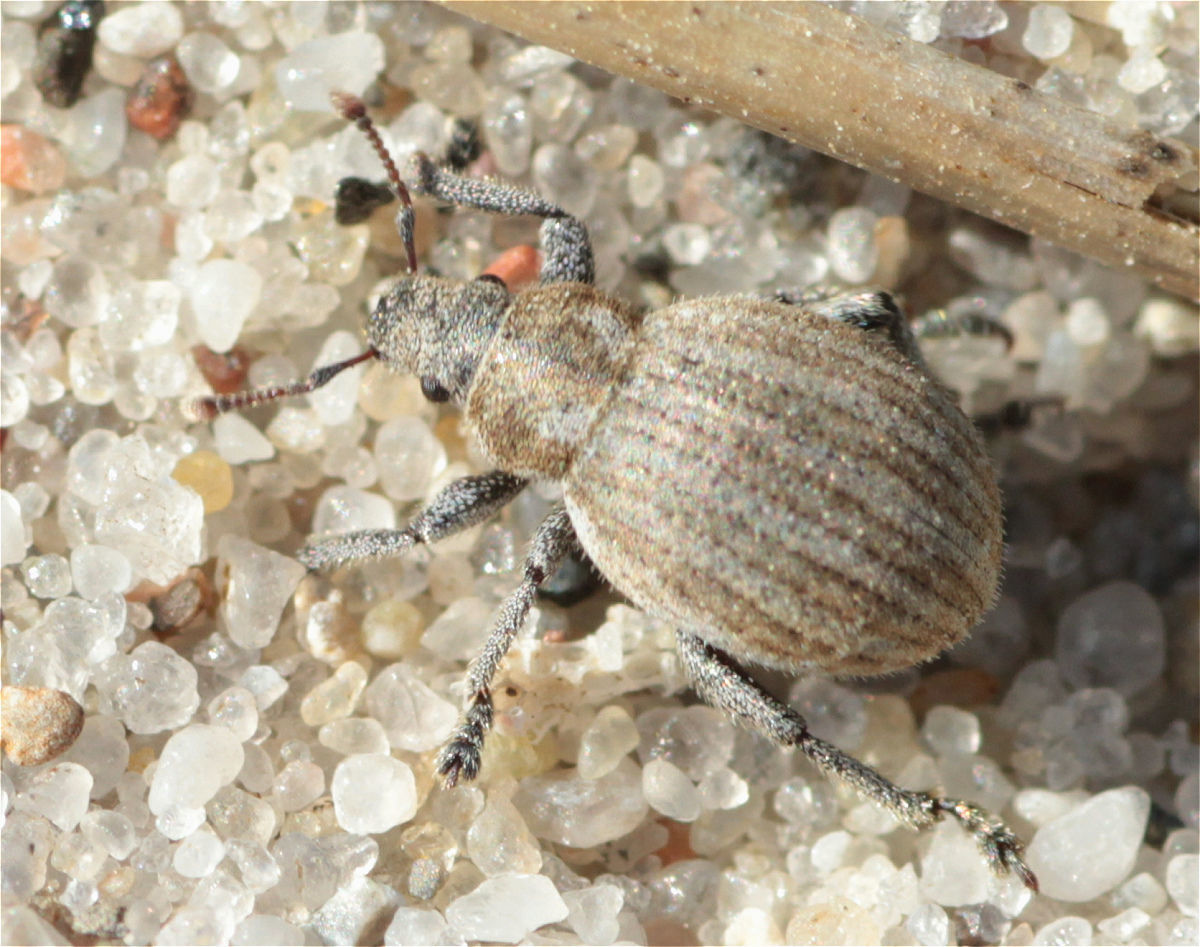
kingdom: Animalia
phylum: Arthropoda
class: Insecta
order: Coleoptera
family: Curculionidae
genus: Philopedon
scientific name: Philopedon plagiatum
